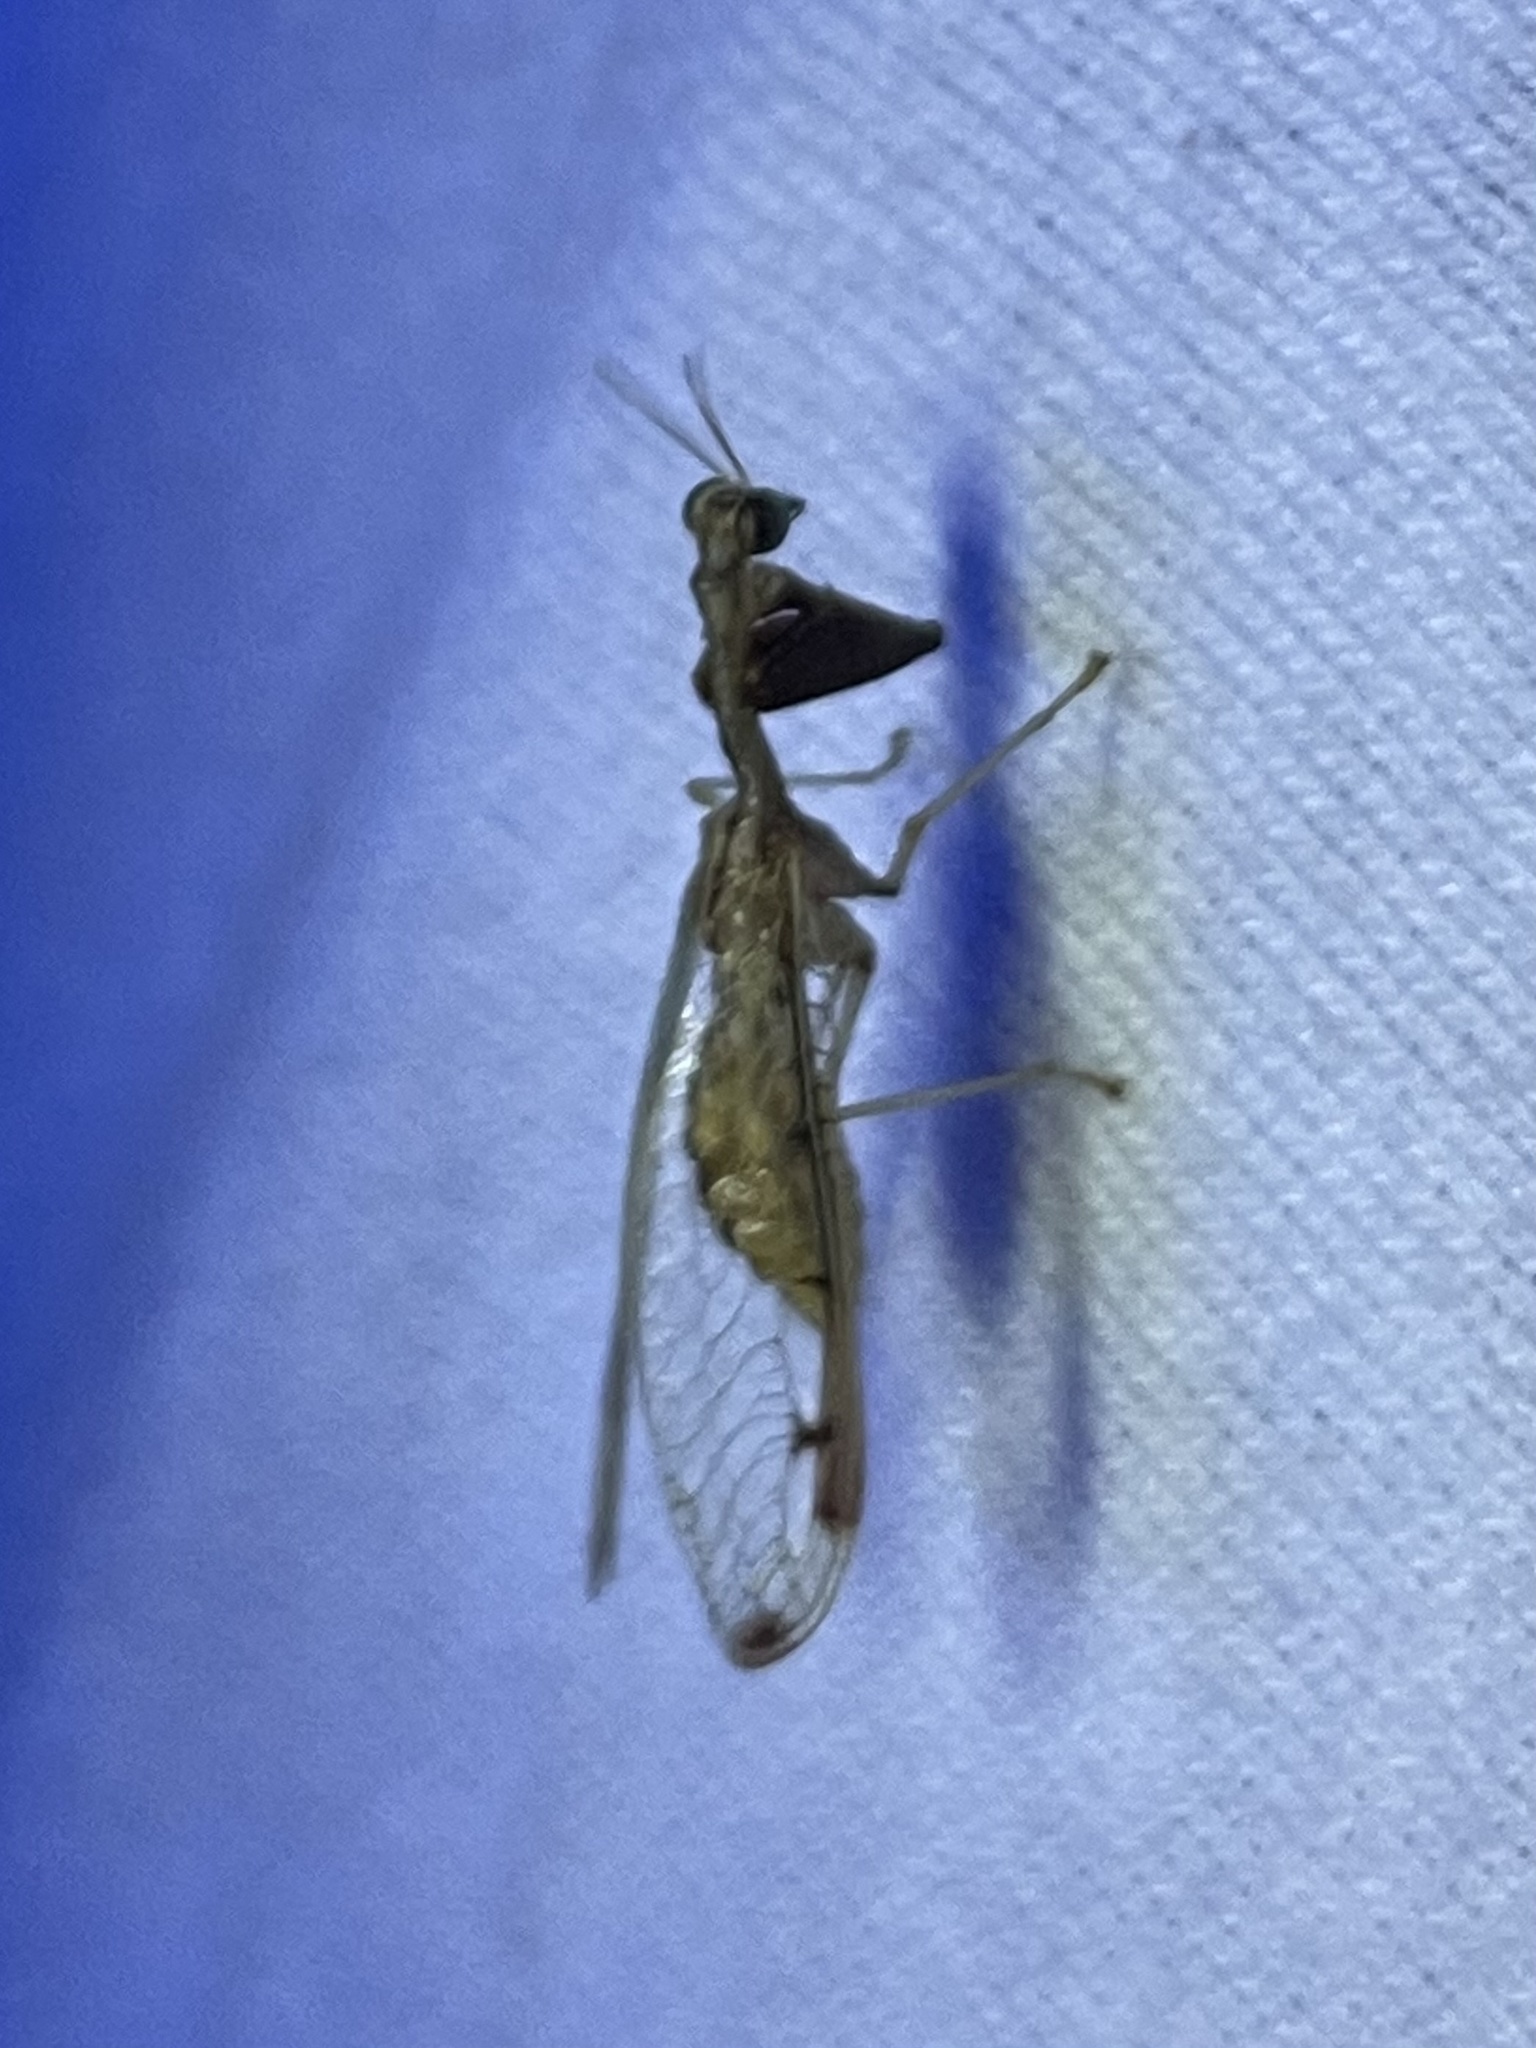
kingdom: Animalia
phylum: Arthropoda
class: Insecta
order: Neuroptera
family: Mantispidae
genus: Dicromantispa
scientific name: Dicromantispa interrupta
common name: Four-spotted mantidfly
